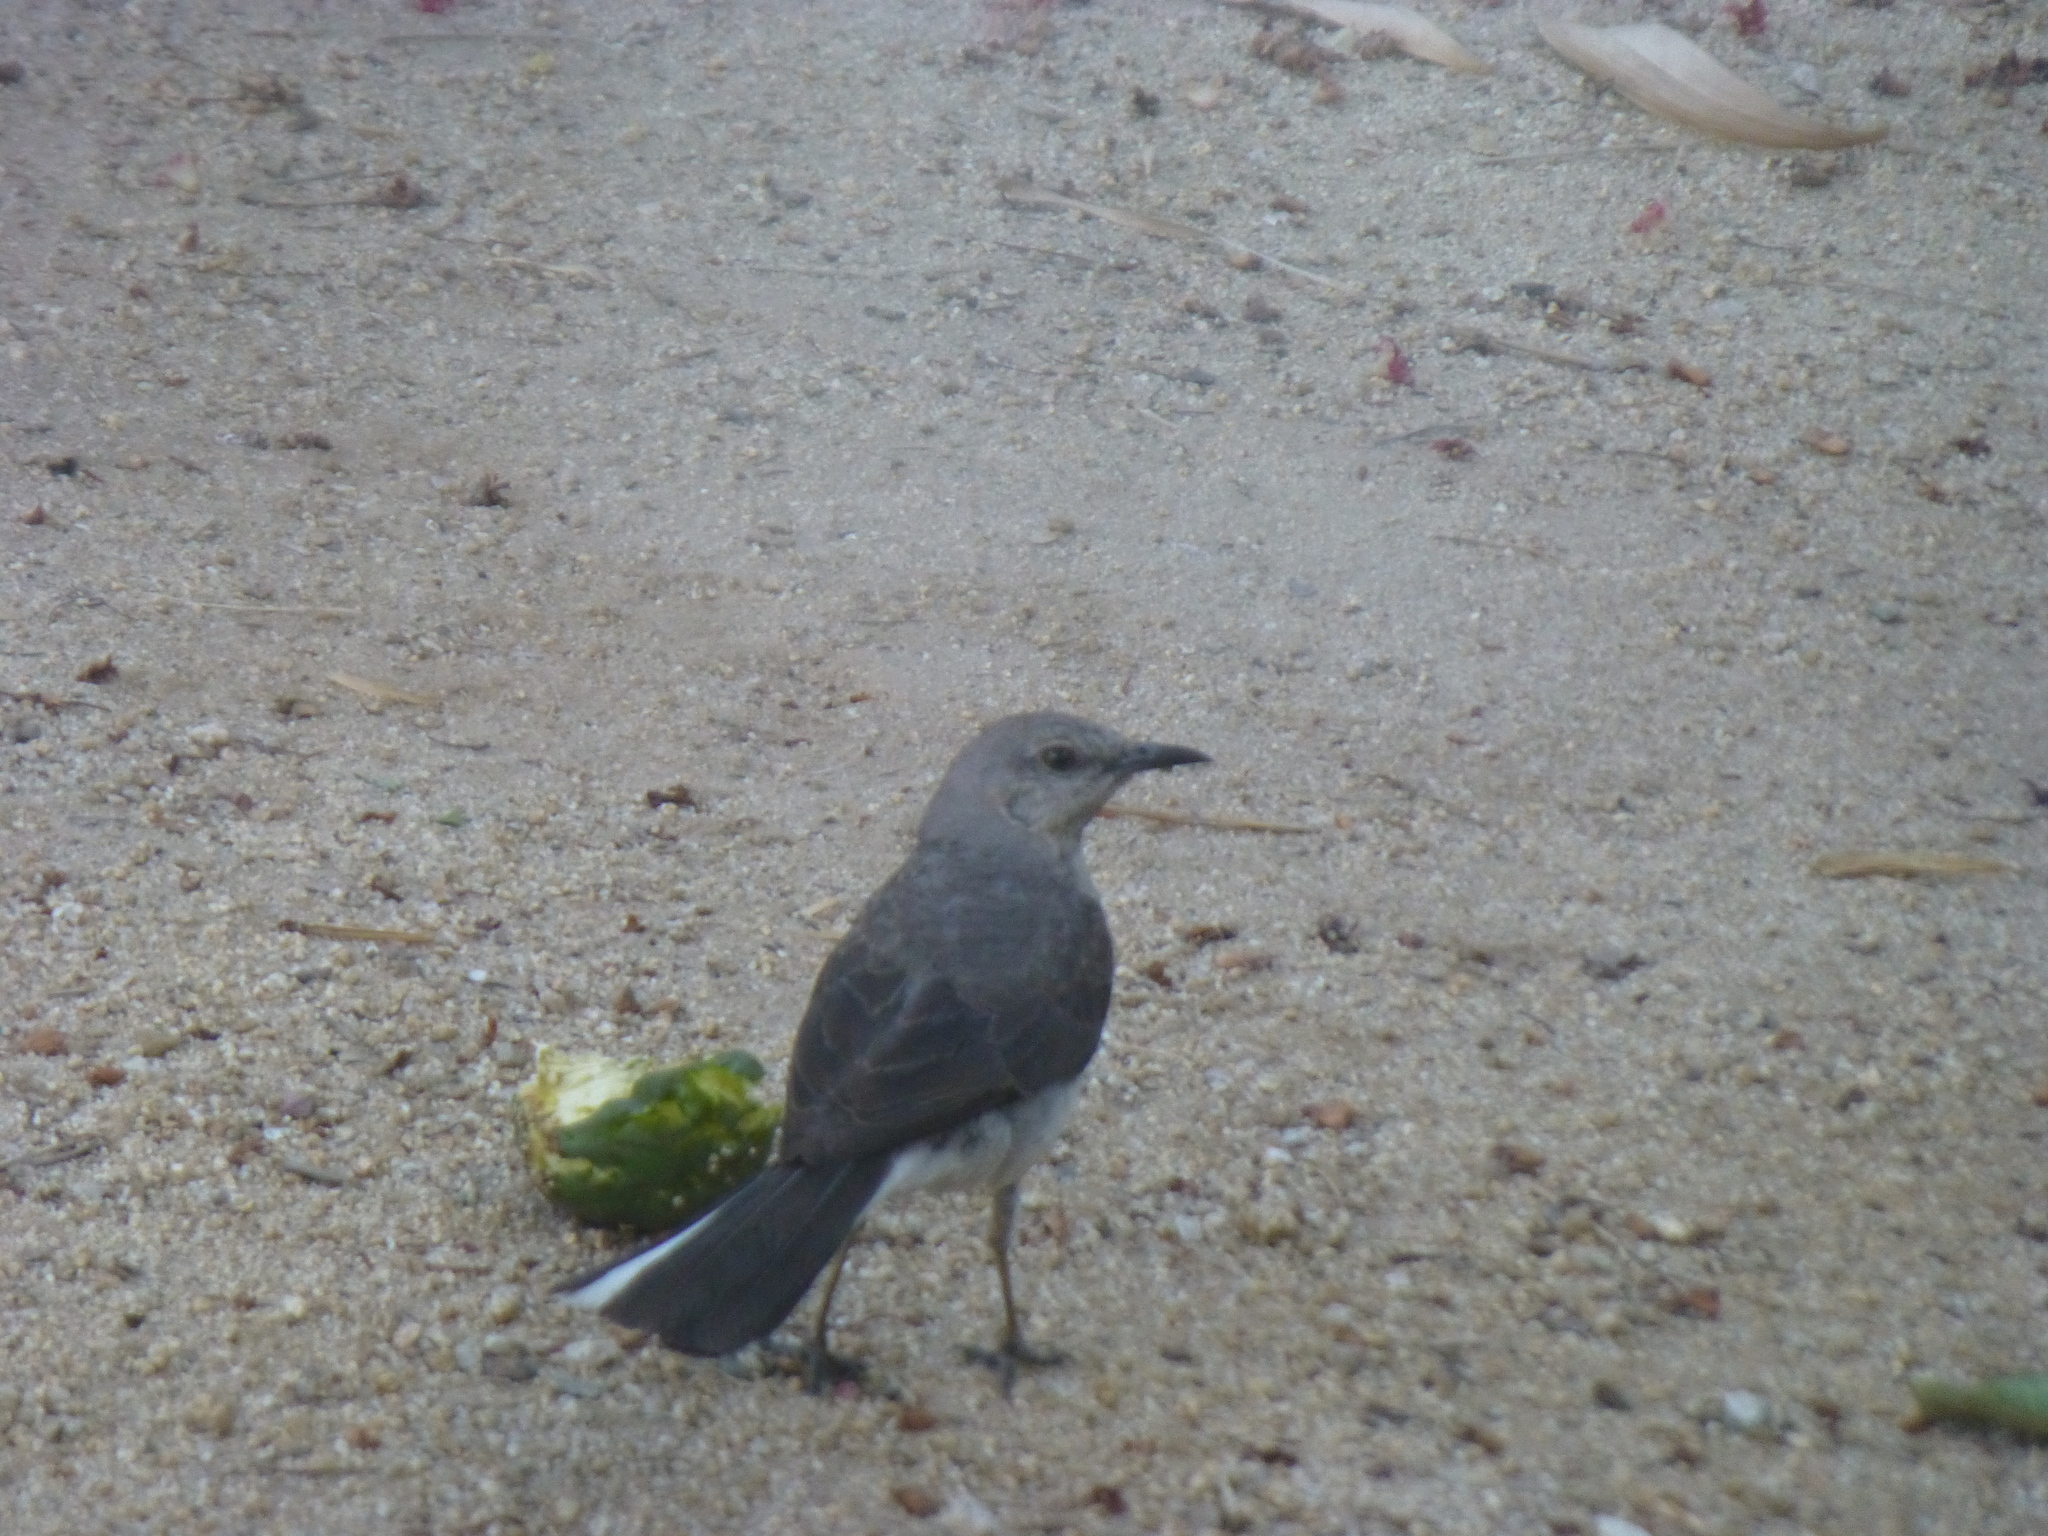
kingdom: Animalia
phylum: Chordata
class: Aves
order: Passeriformes
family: Mimidae
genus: Mimus
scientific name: Mimus polyglottos
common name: Northern mockingbird
